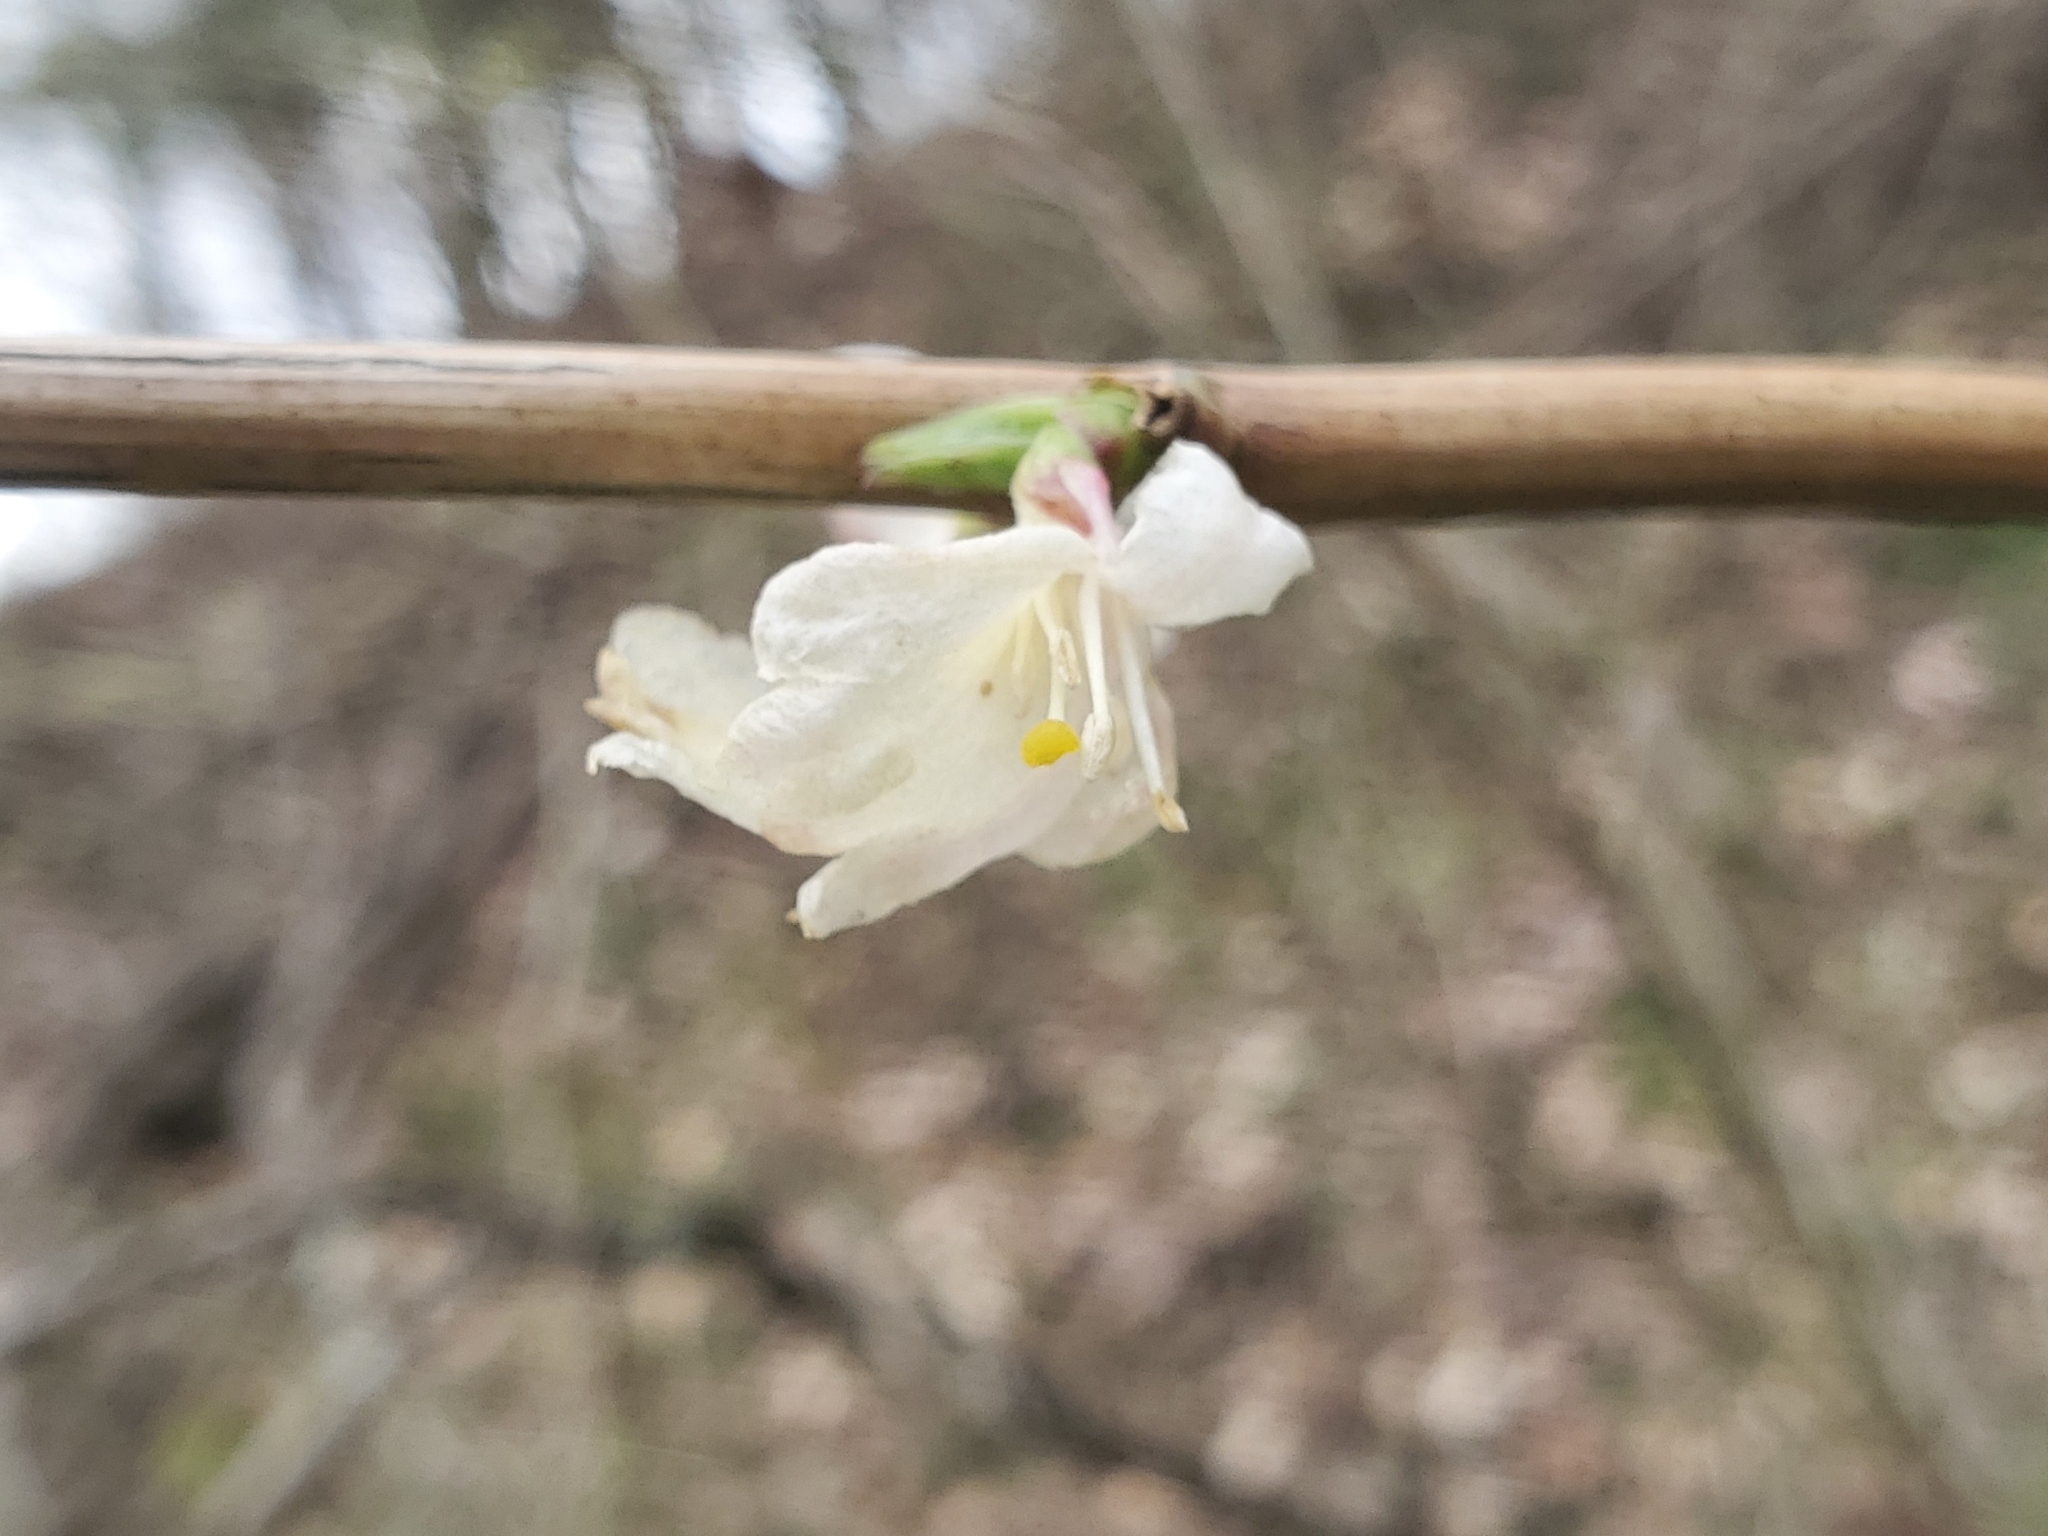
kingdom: Plantae
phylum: Tracheophyta
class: Magnoliopsida
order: Dipsacales
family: Caprifoliaceae
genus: Lonicera
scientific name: Lonicera fragrantissima
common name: Fragrant honeysuckle
